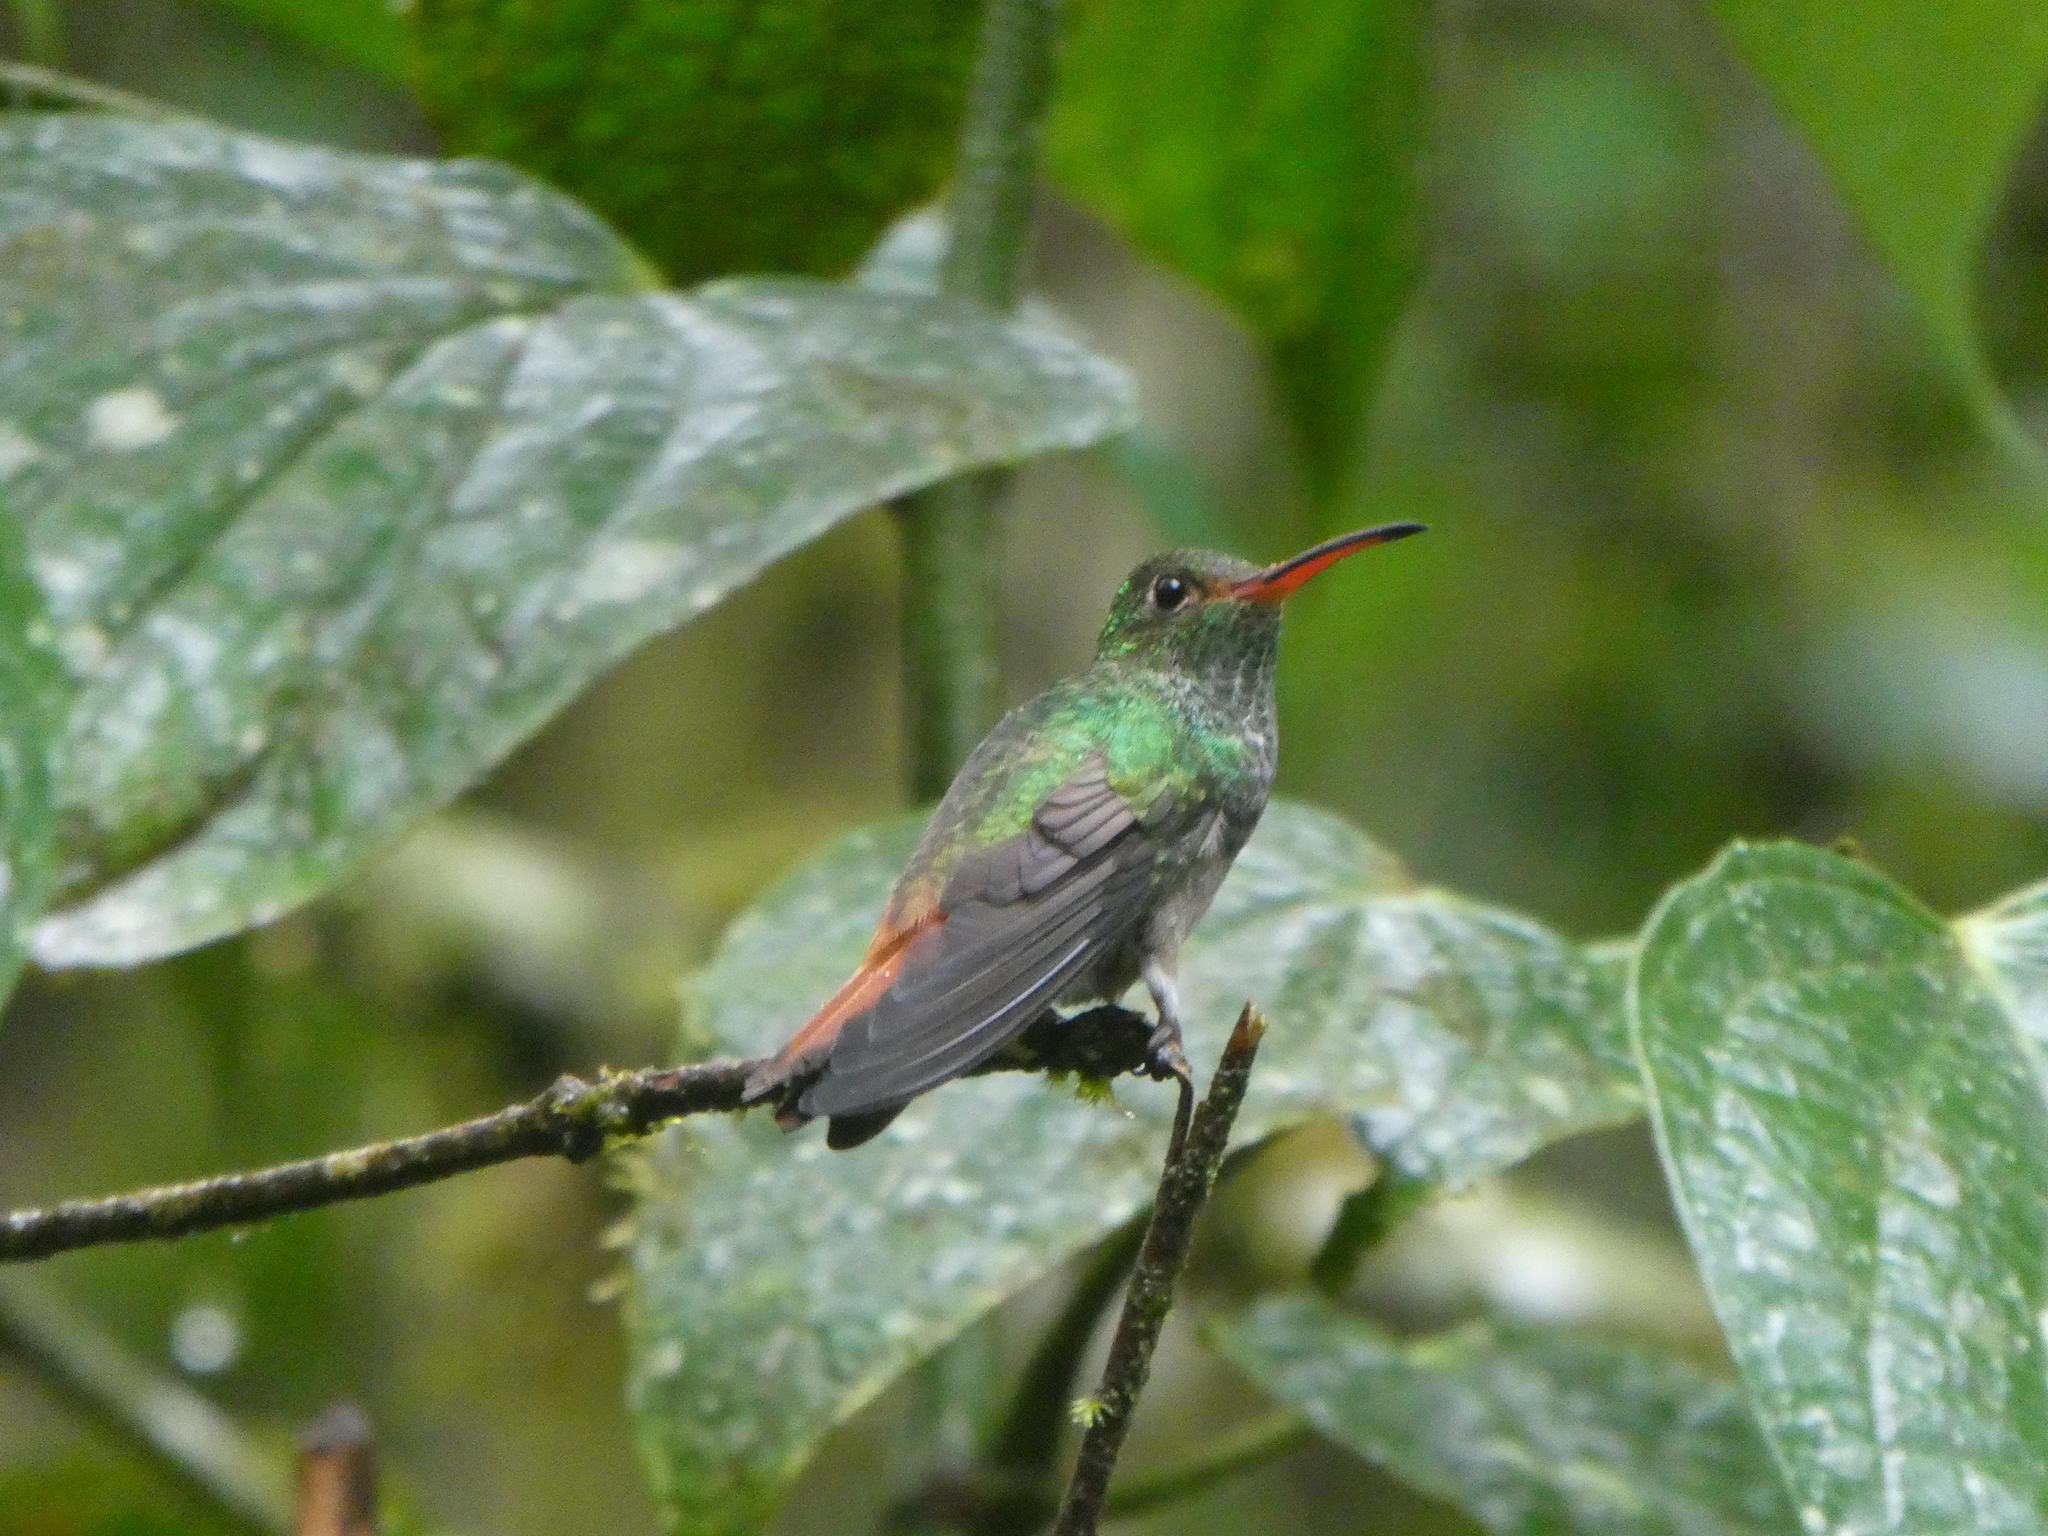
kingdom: Animalia
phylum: Chordata
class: Aves
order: Apodiformes
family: Trochilidae
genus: Amazilia
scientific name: Amazilia tzacatl
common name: Rufous-tailed hummingbird
